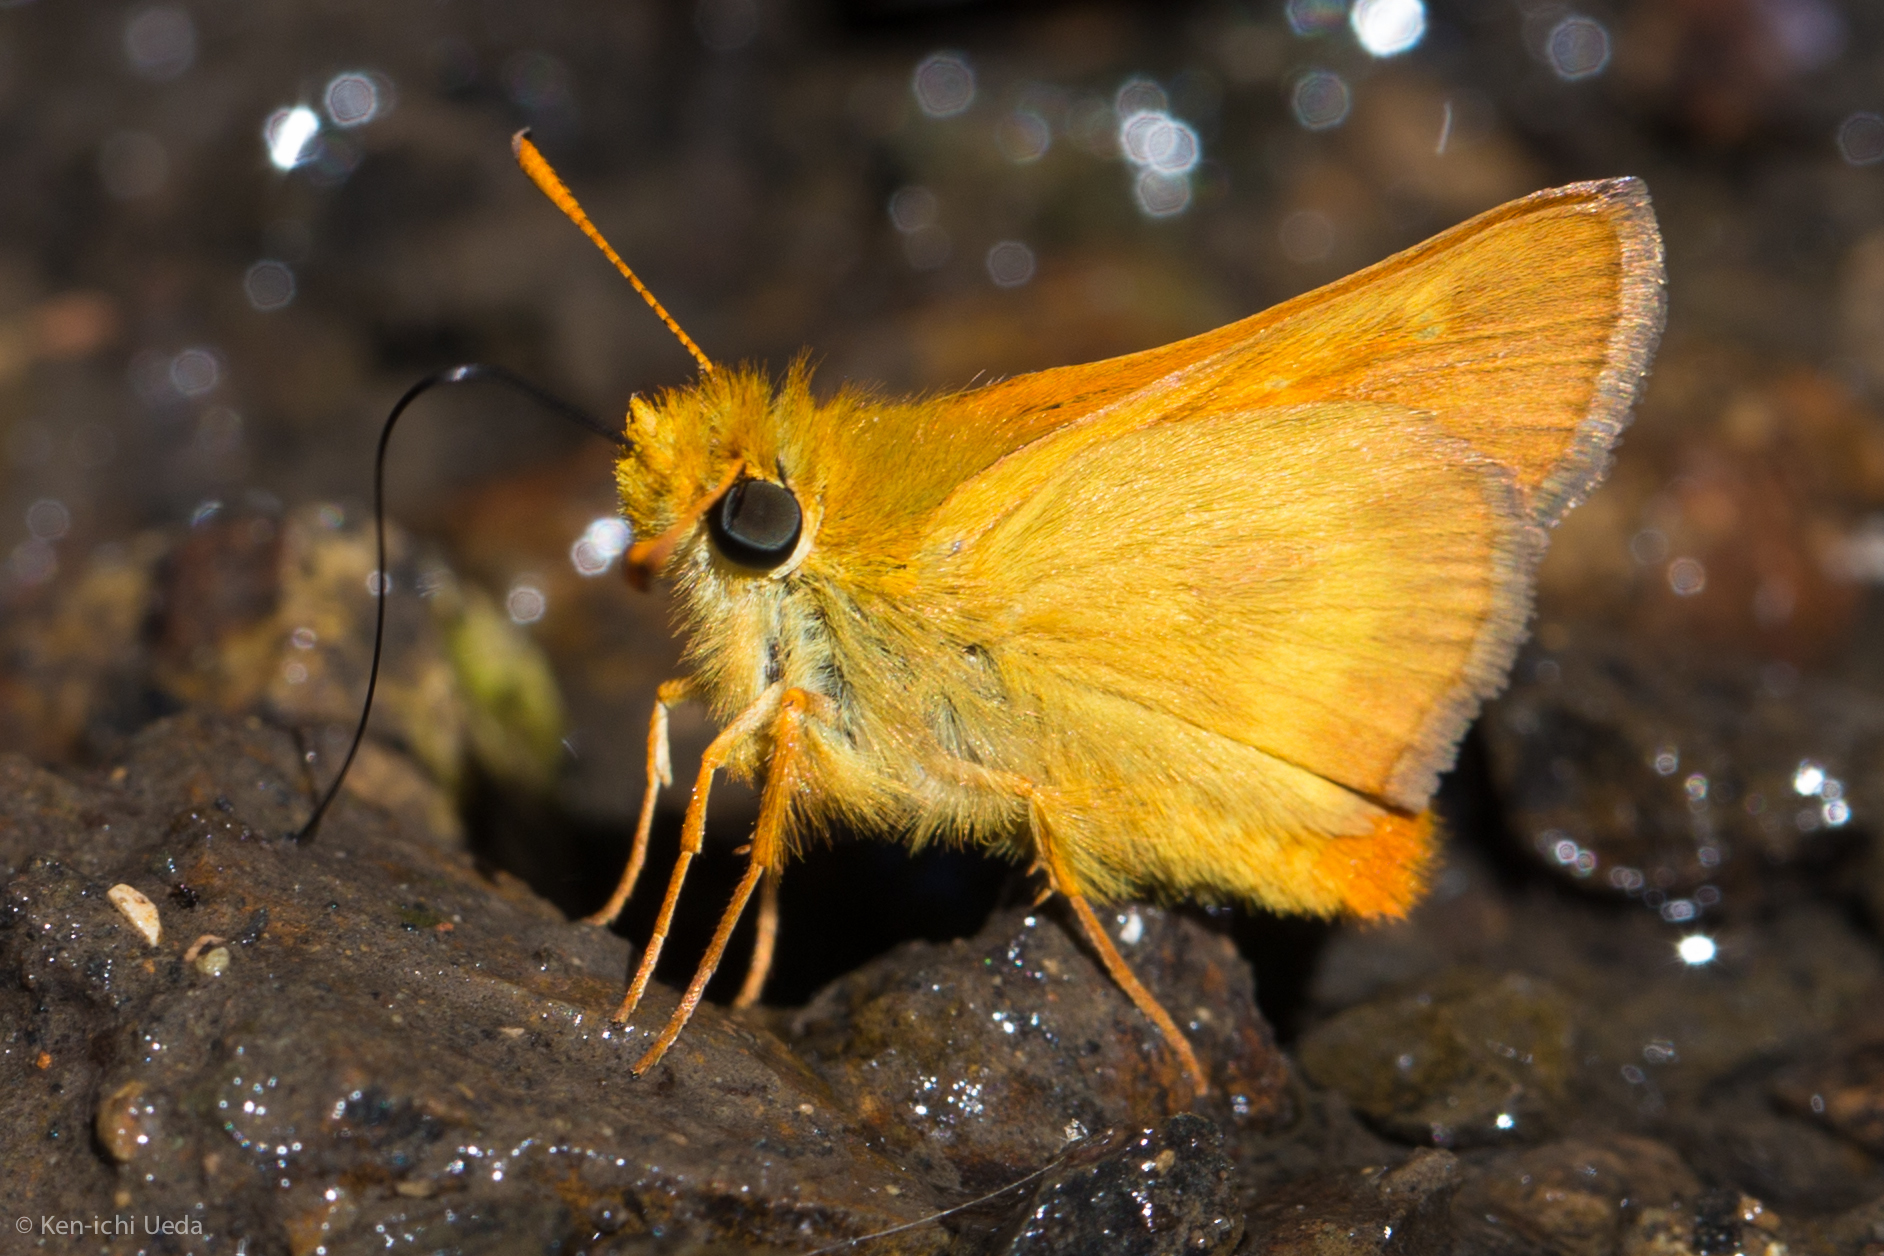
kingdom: Animalia
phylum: Arthropoda
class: Insecta
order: Lepidoptera
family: Hesperiidae
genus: Ochlodes
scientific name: Ochlodes agricola
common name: Rural skipper
